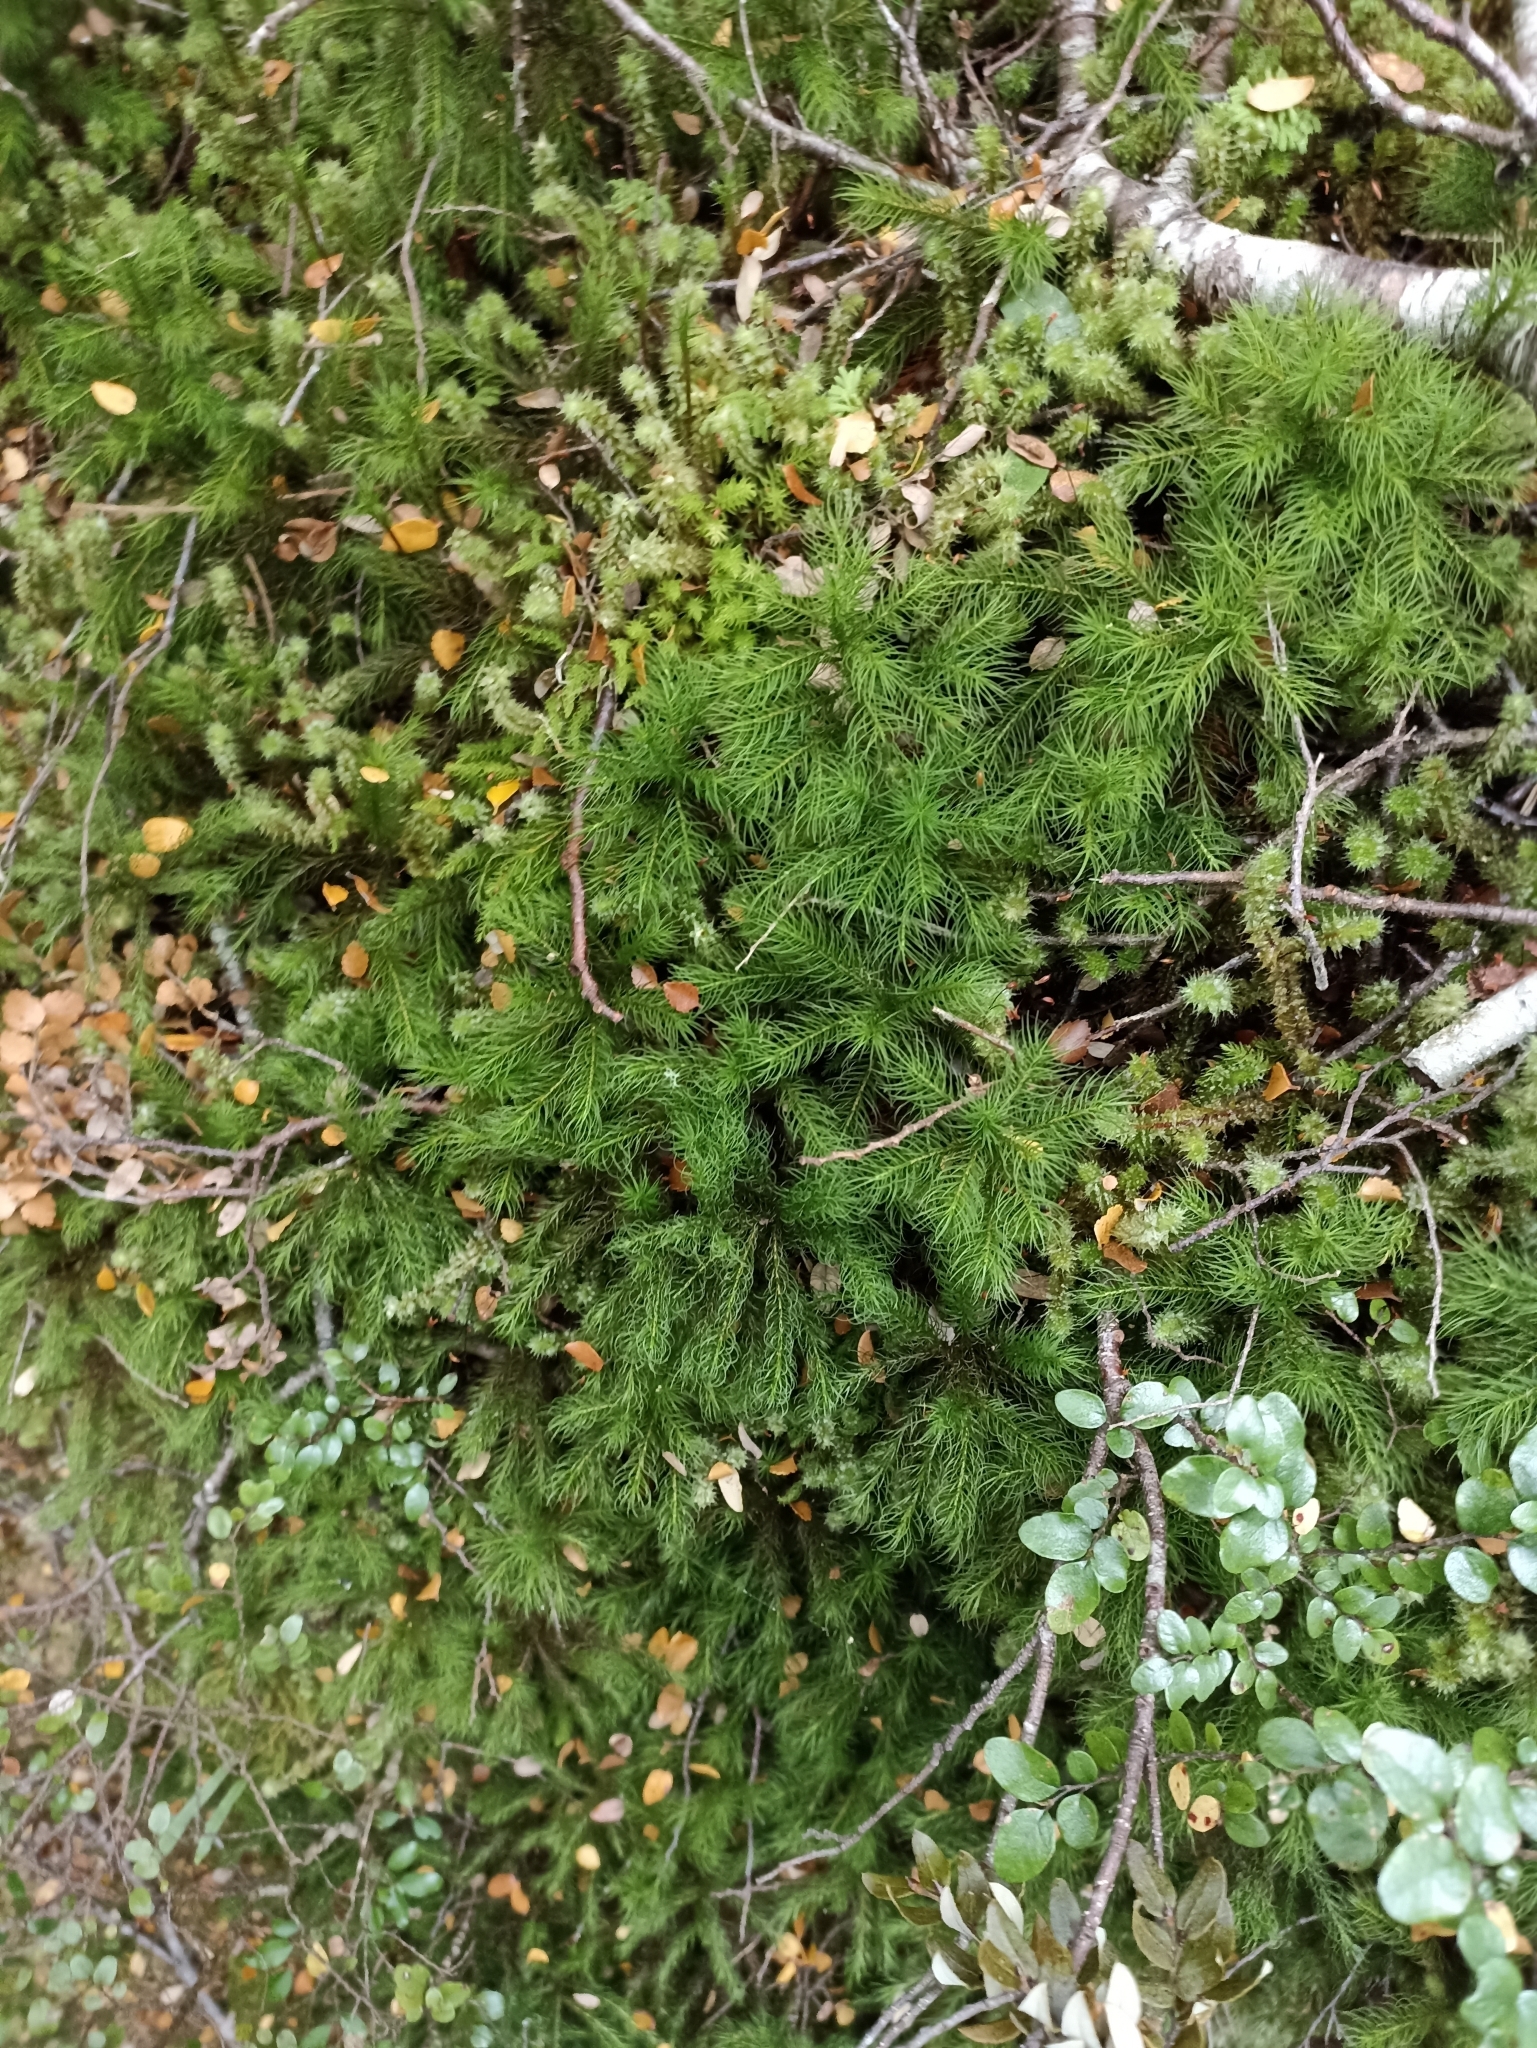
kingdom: Plantae
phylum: Bryophyta
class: Polytrichopsida
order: Polytrichales
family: Polytrichaceae
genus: Dendroligotrichum
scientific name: Dendroligotrichum tongariroense
